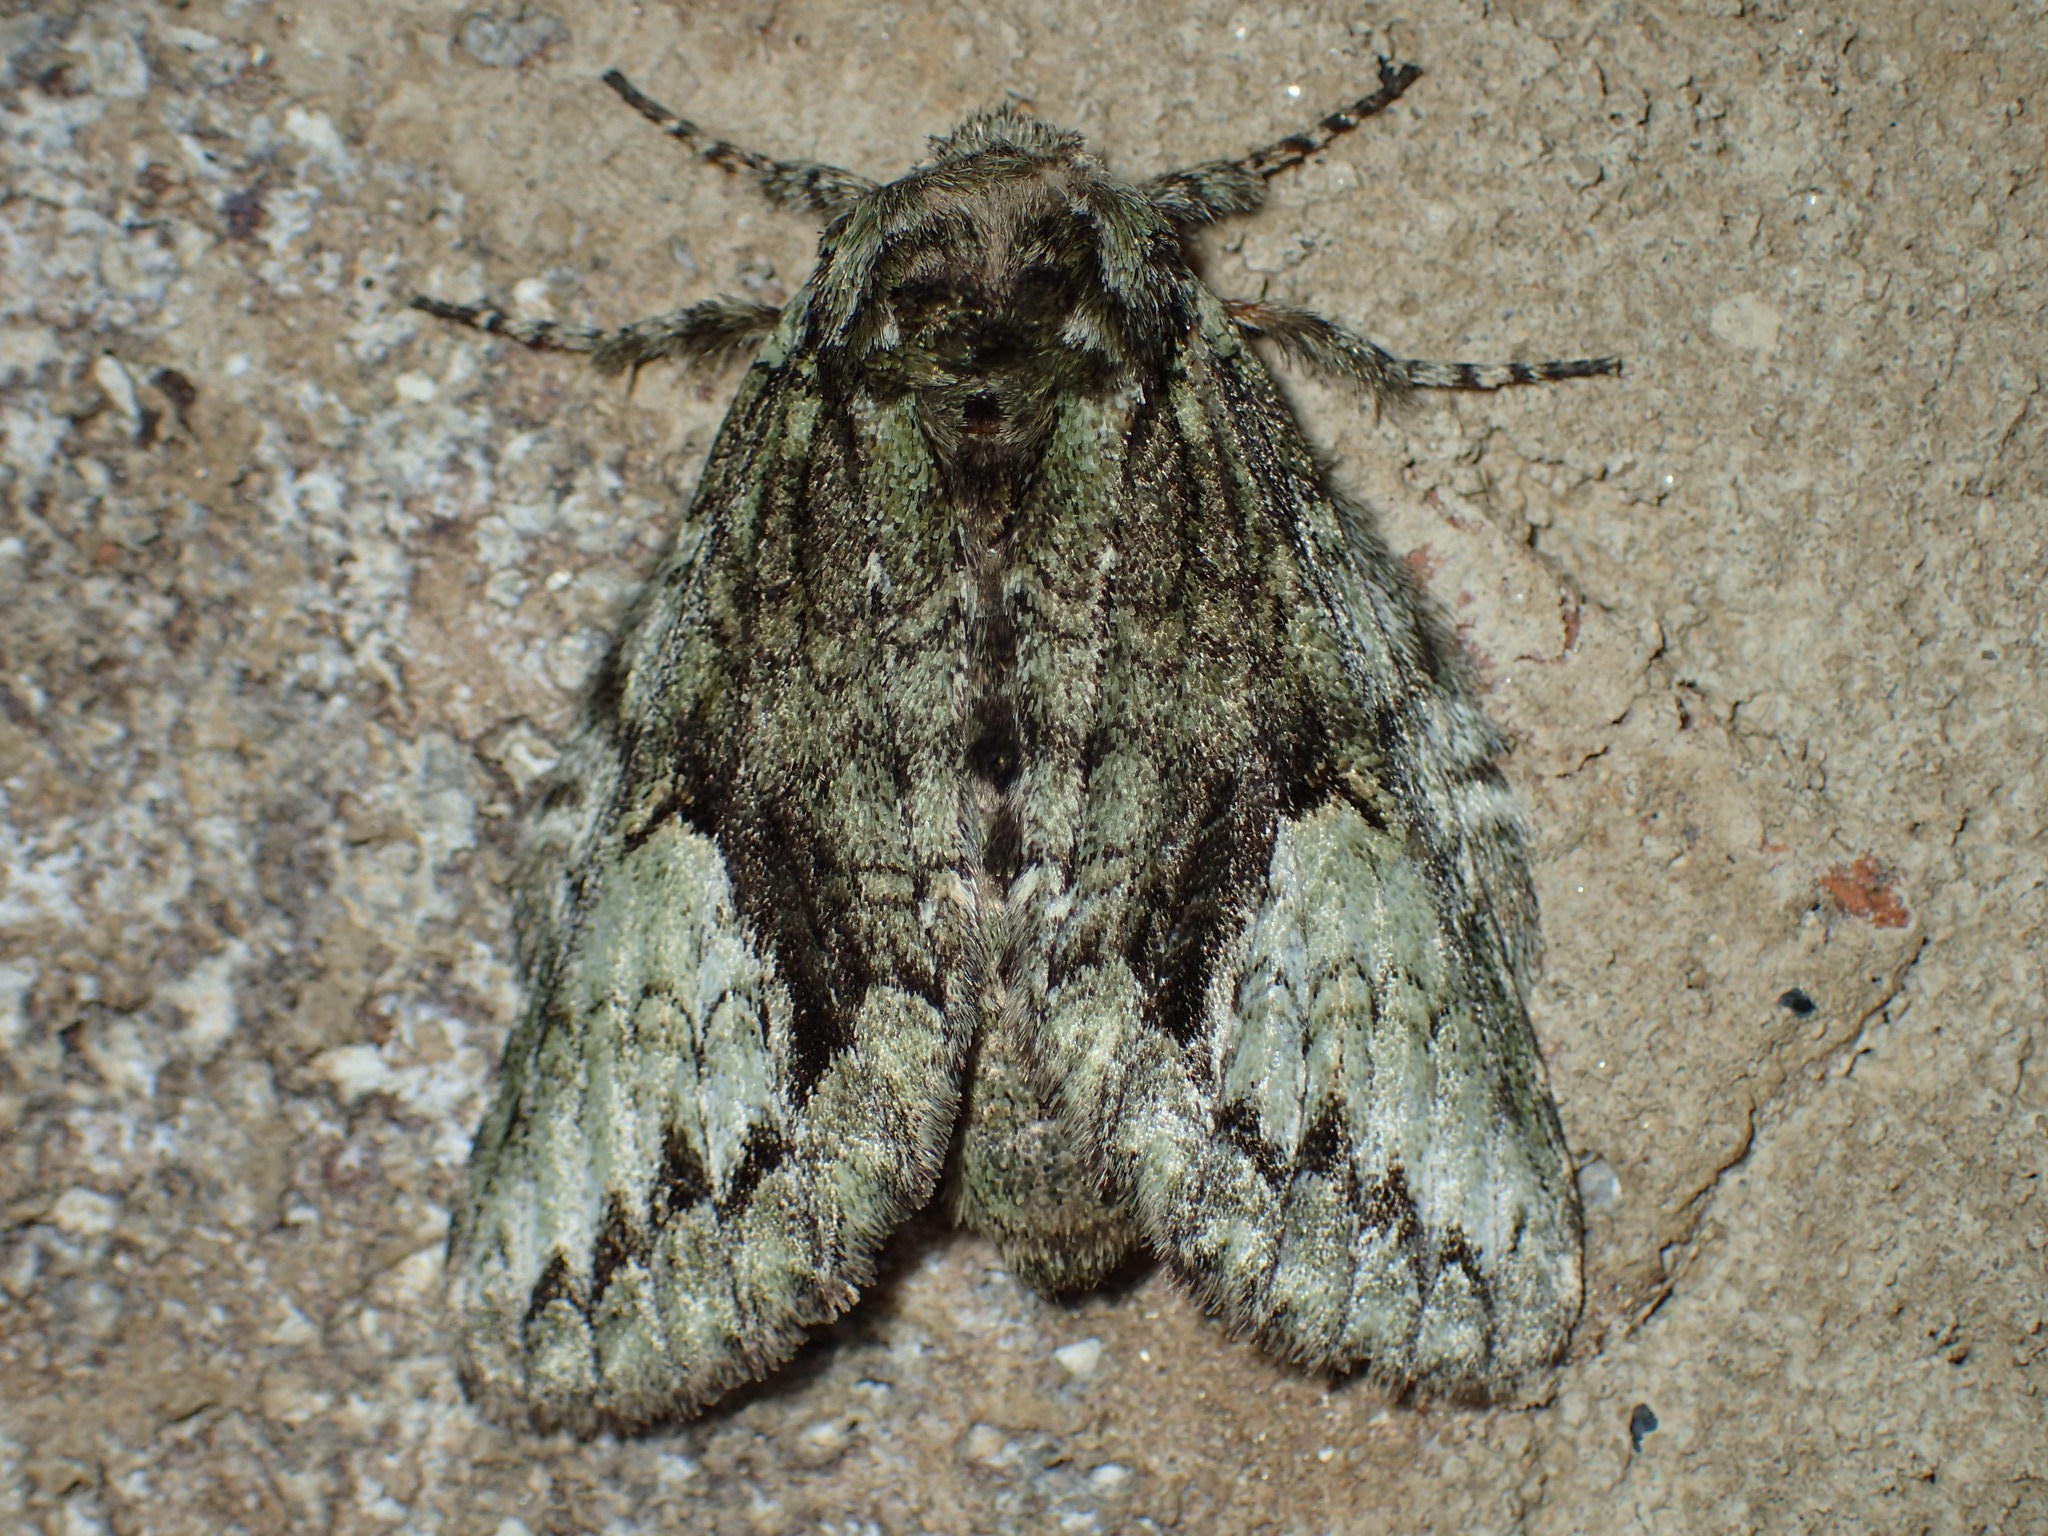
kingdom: Animalia
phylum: Arthropoda
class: Insecta
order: Lepidoptera
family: Notodontidae
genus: Heterocampa
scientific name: Heterocampa
